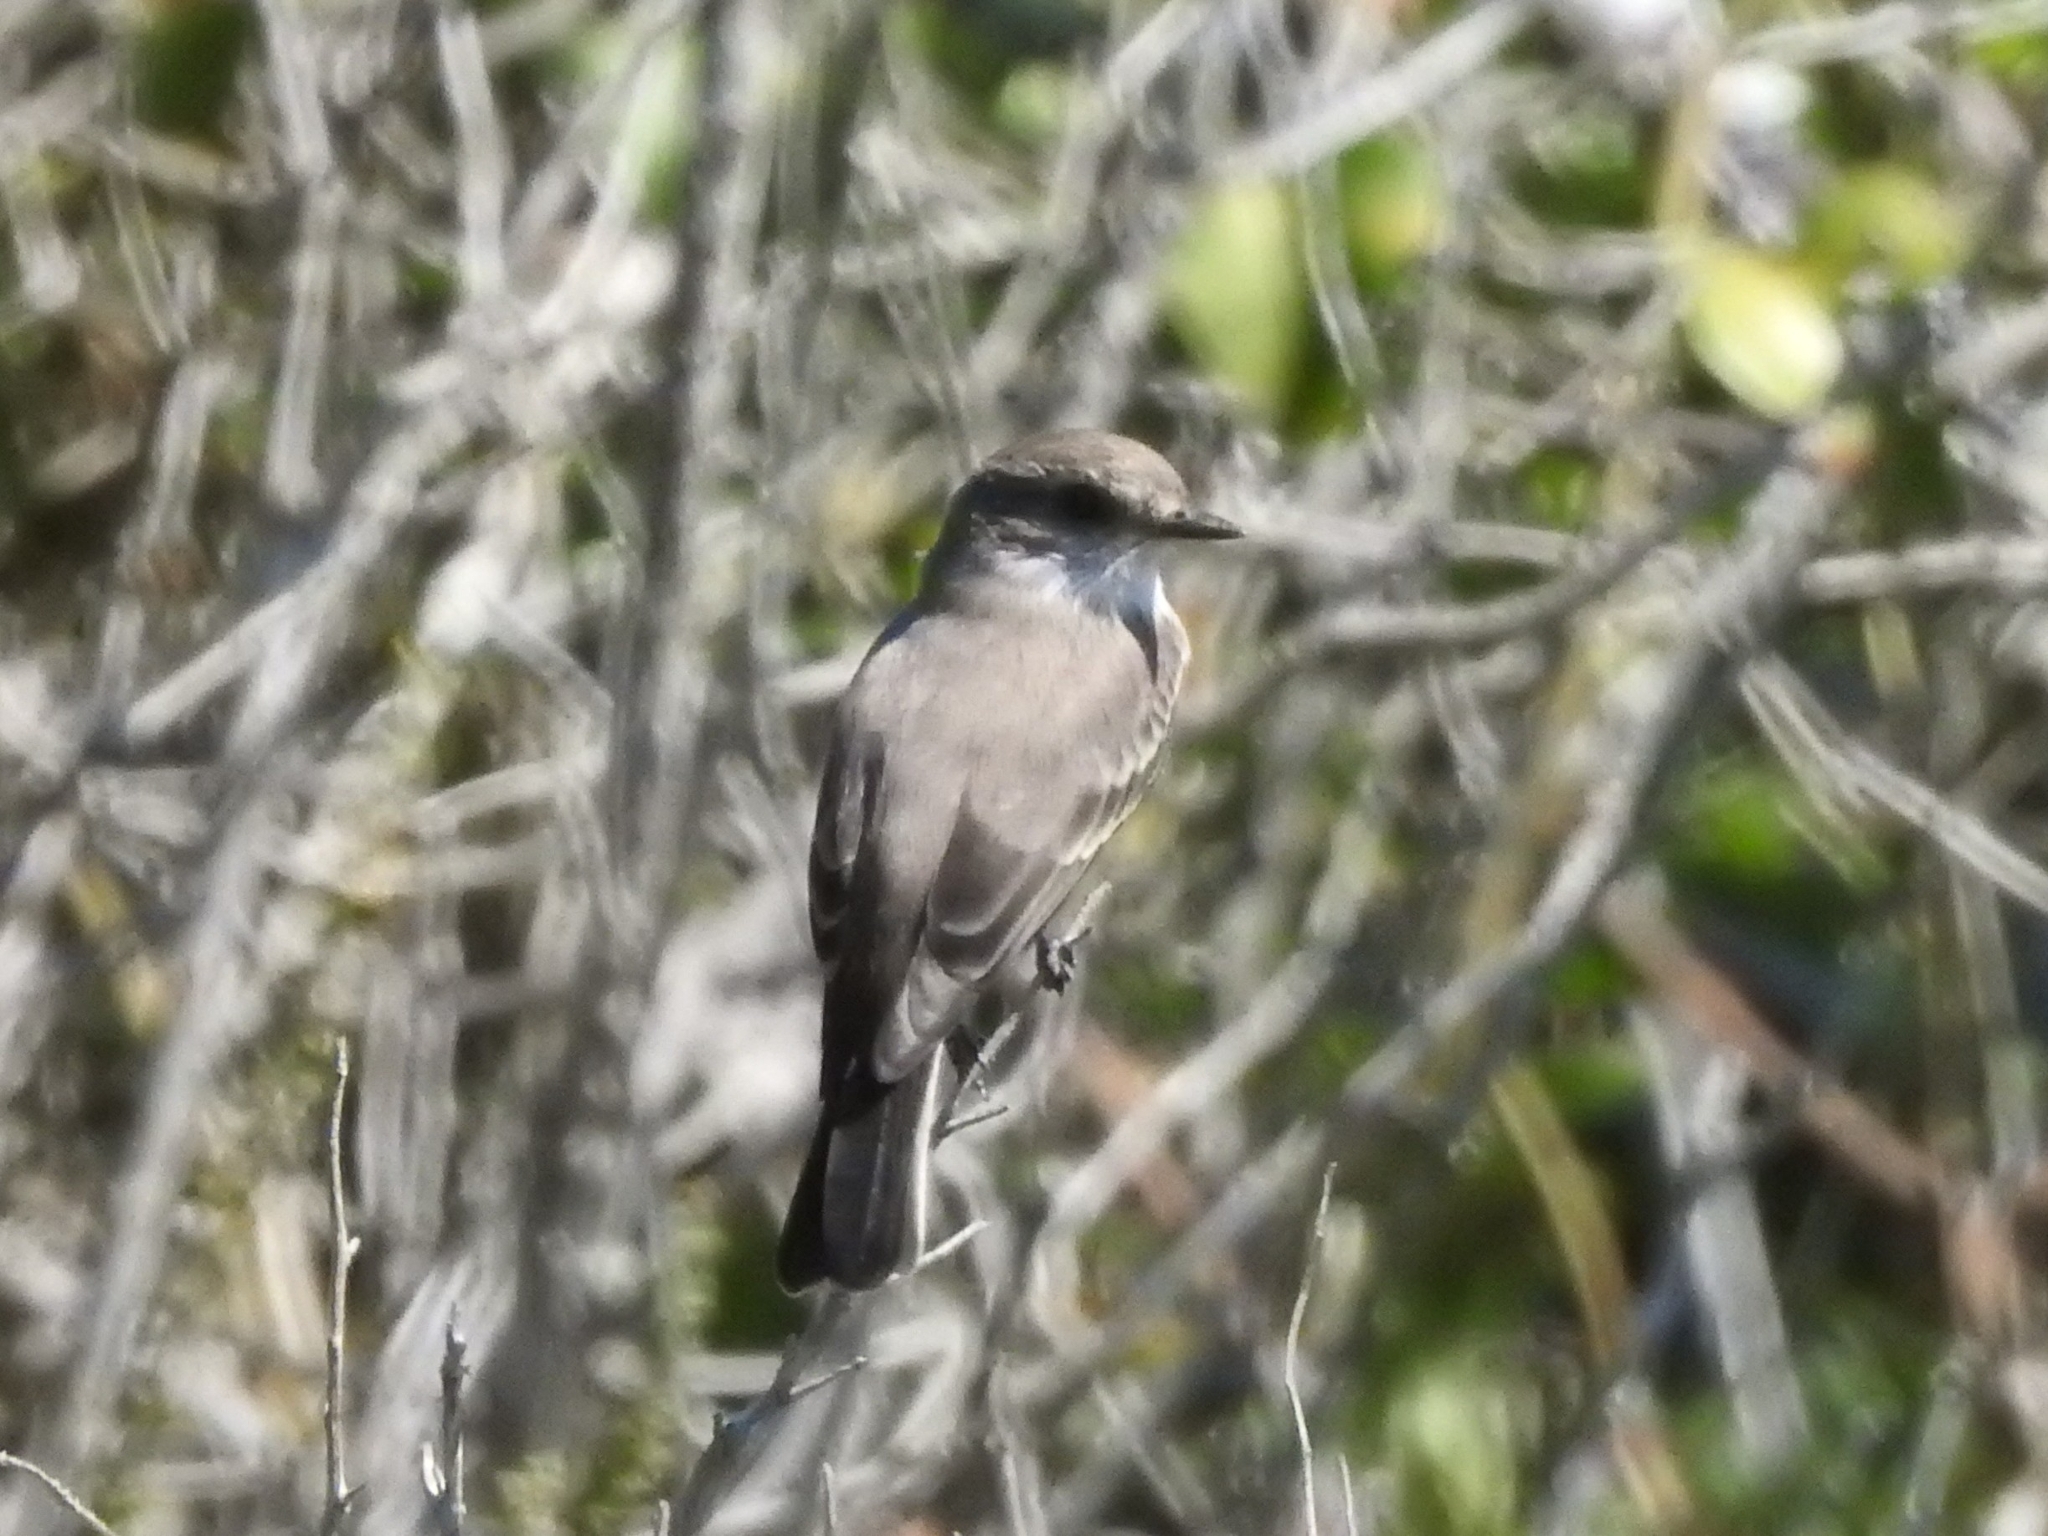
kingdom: Animalia
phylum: Chordata
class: Aves
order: Passeriformes
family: Tyrannidae
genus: Pyrocephalus
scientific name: Pyrocephalus rubinus
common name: Vermilion flycatcher
